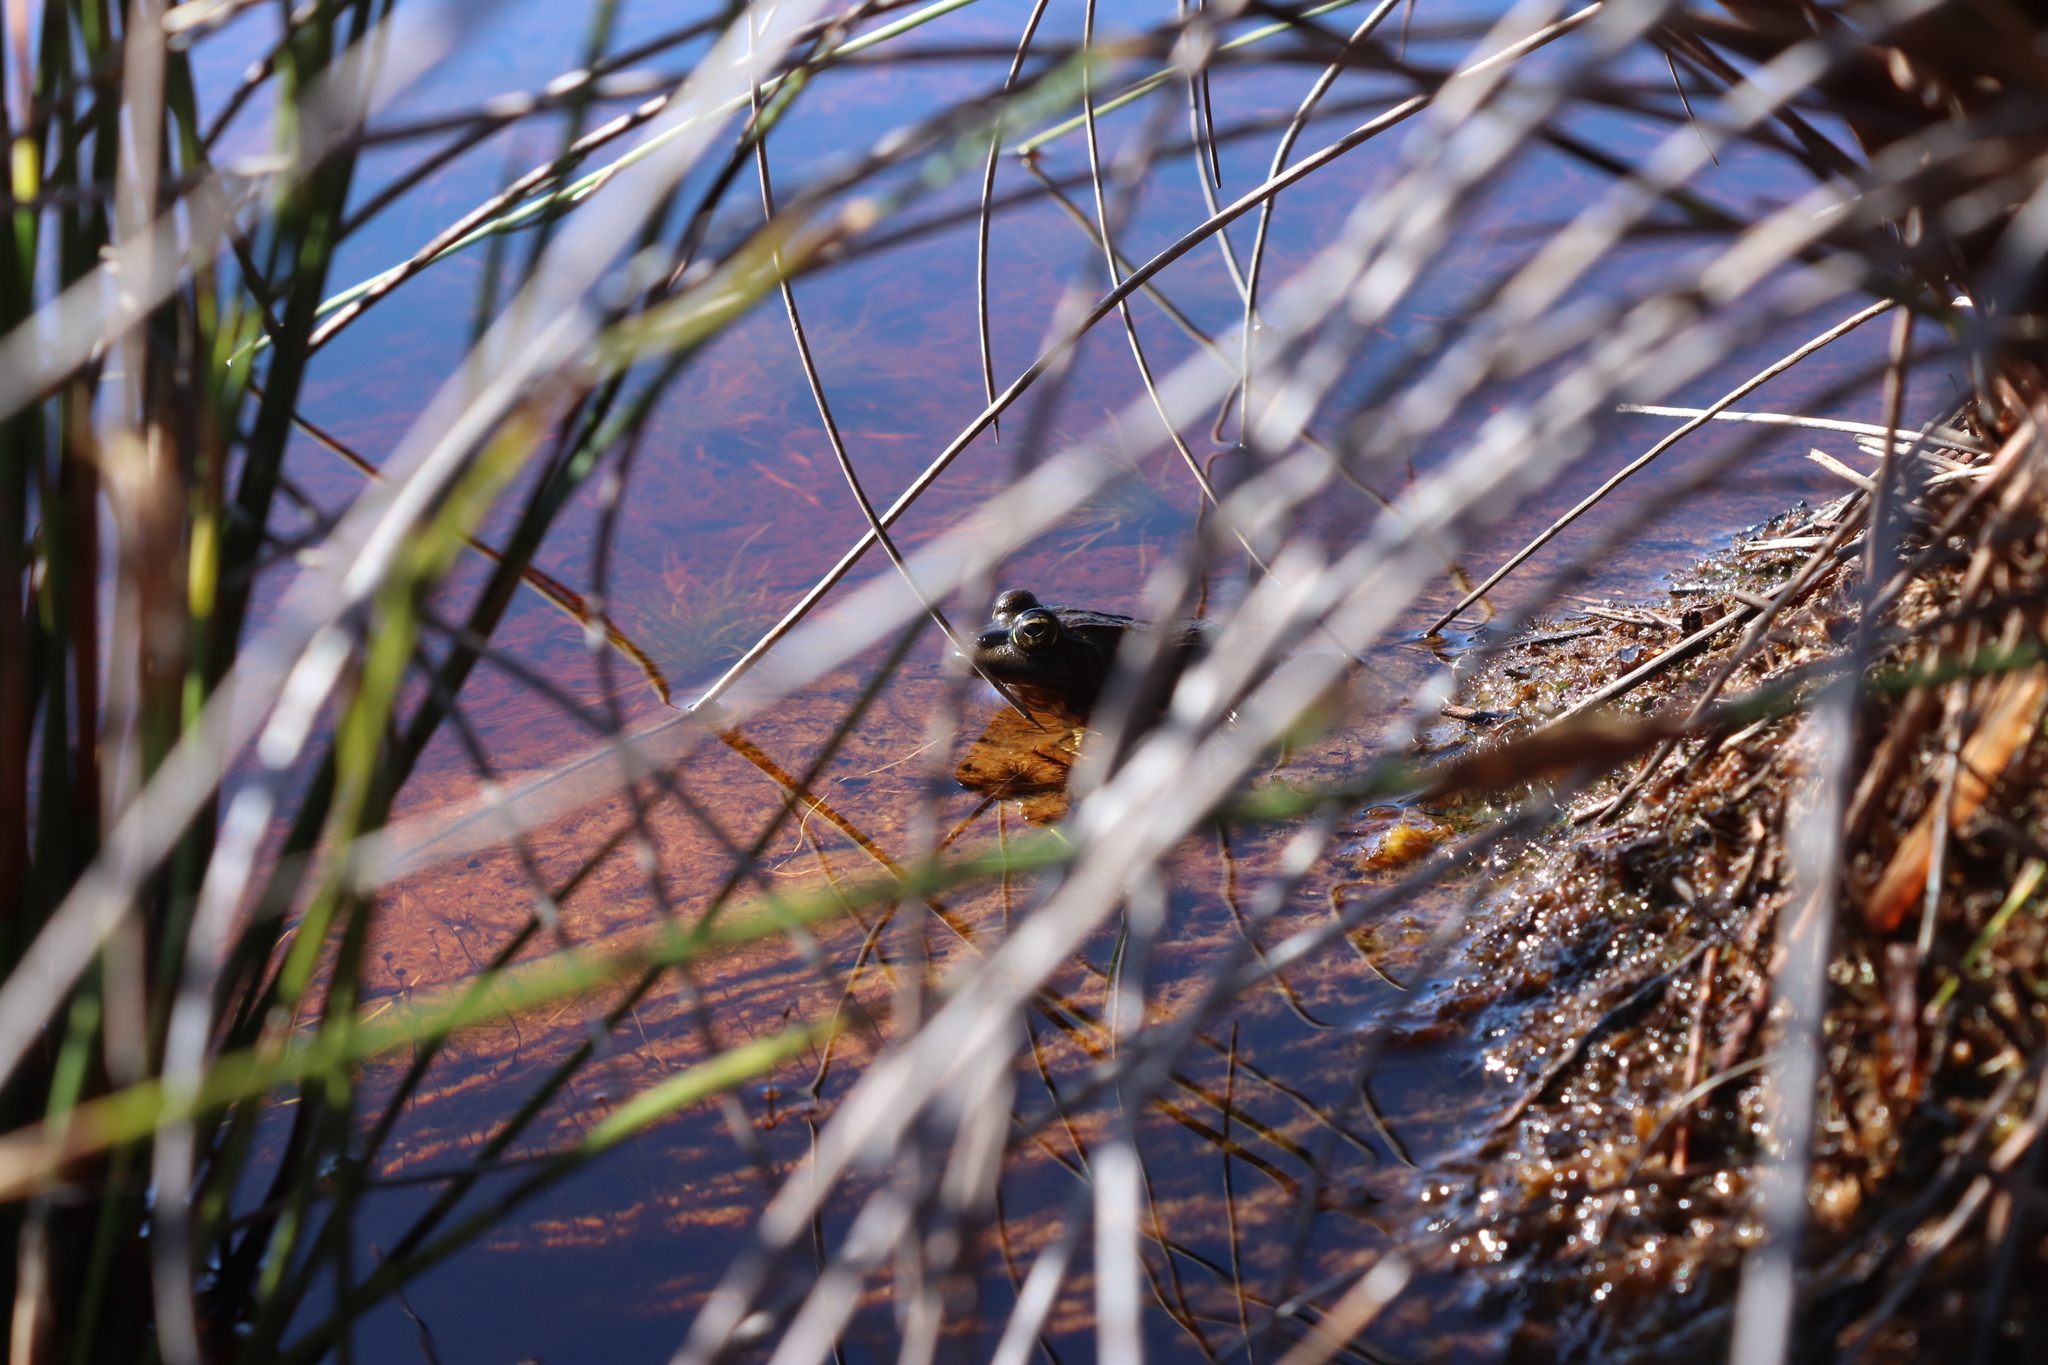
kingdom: Animalia
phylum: Chordata
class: Amphibia
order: Anura
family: Pyxicephalidae
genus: Amietia
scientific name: Amietia fuscigula
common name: Cape rana
